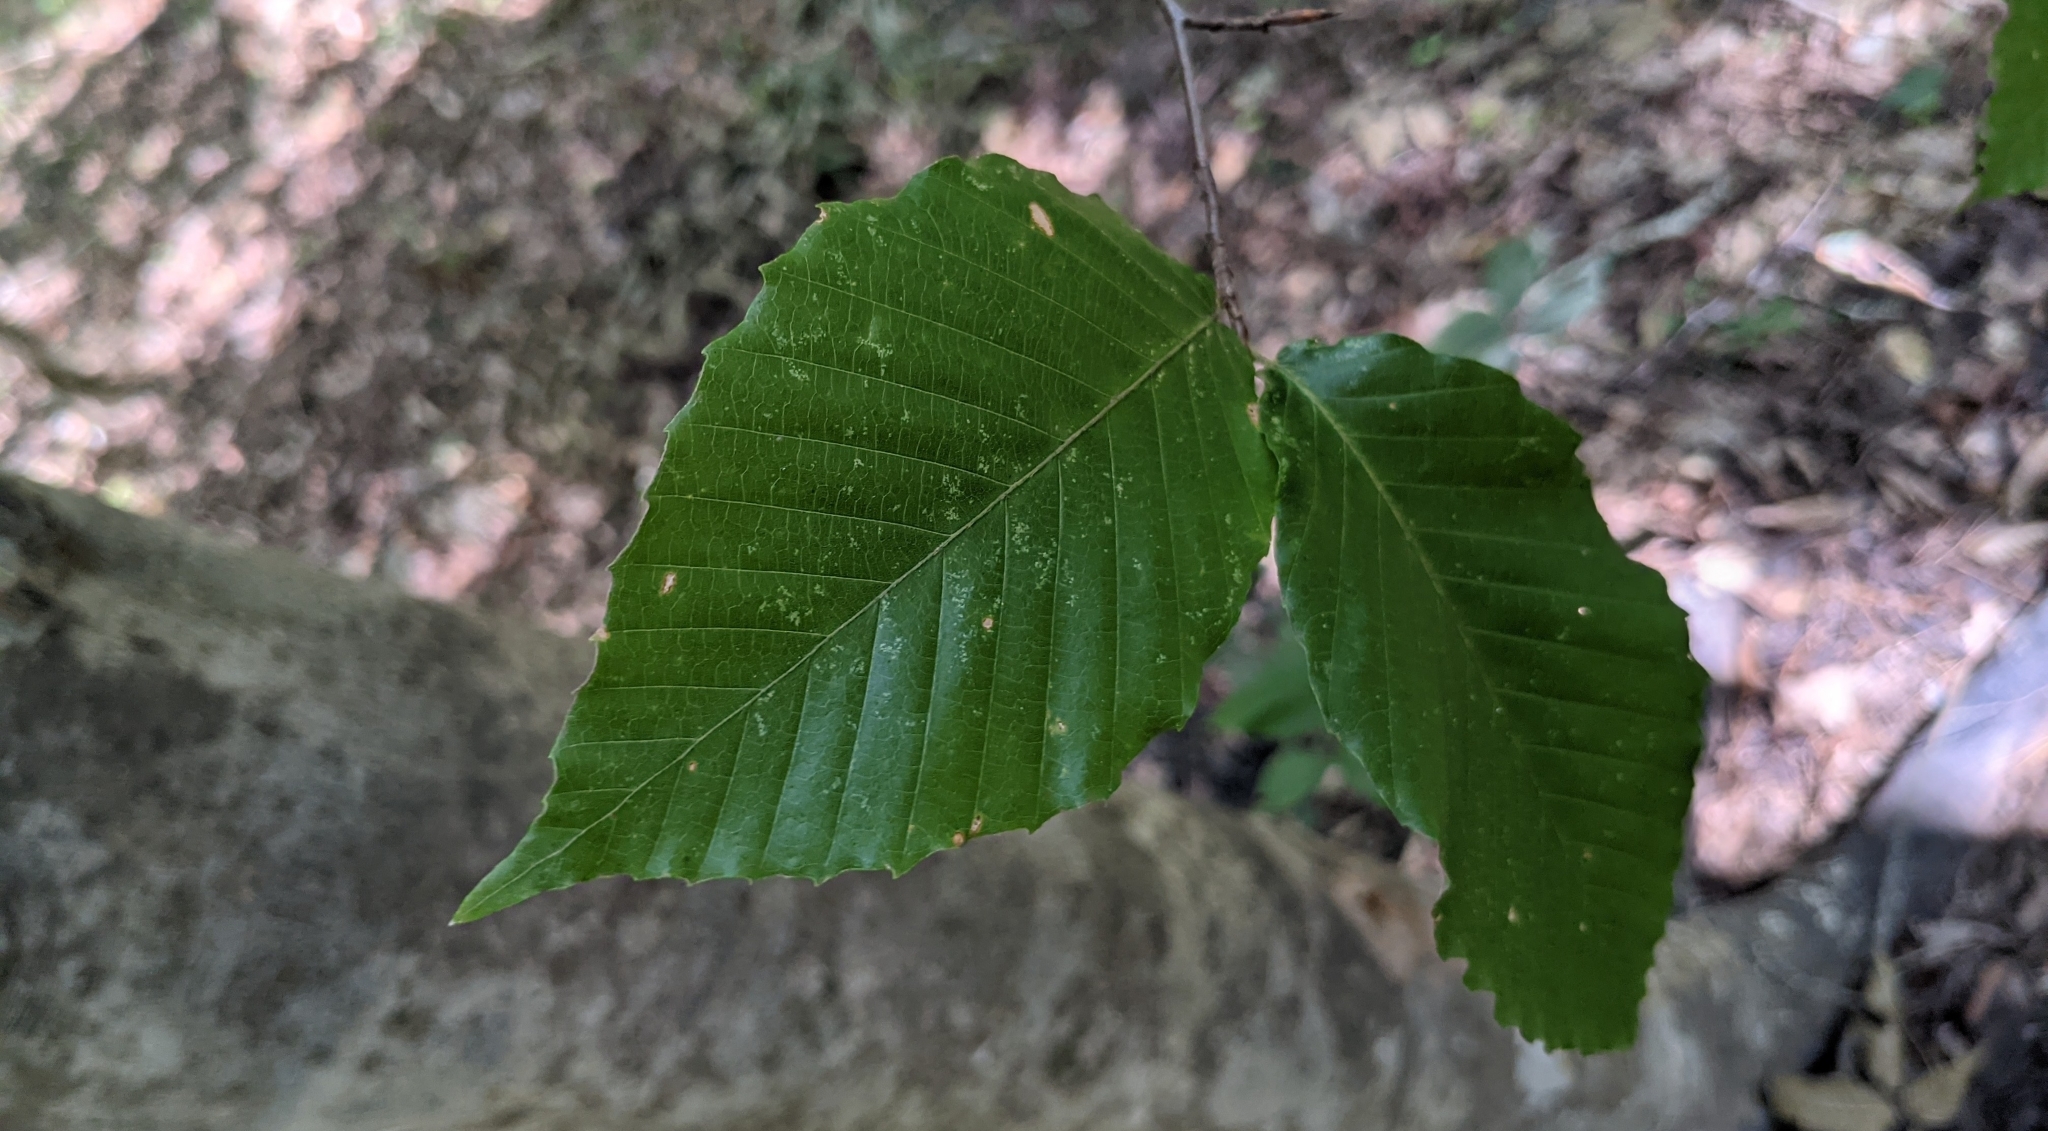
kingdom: Plantae
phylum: Tracheophyta
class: Magnoliopsida
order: Fagales
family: Fagaceae
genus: Fagus
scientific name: Fagus grandifolia
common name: American beech
